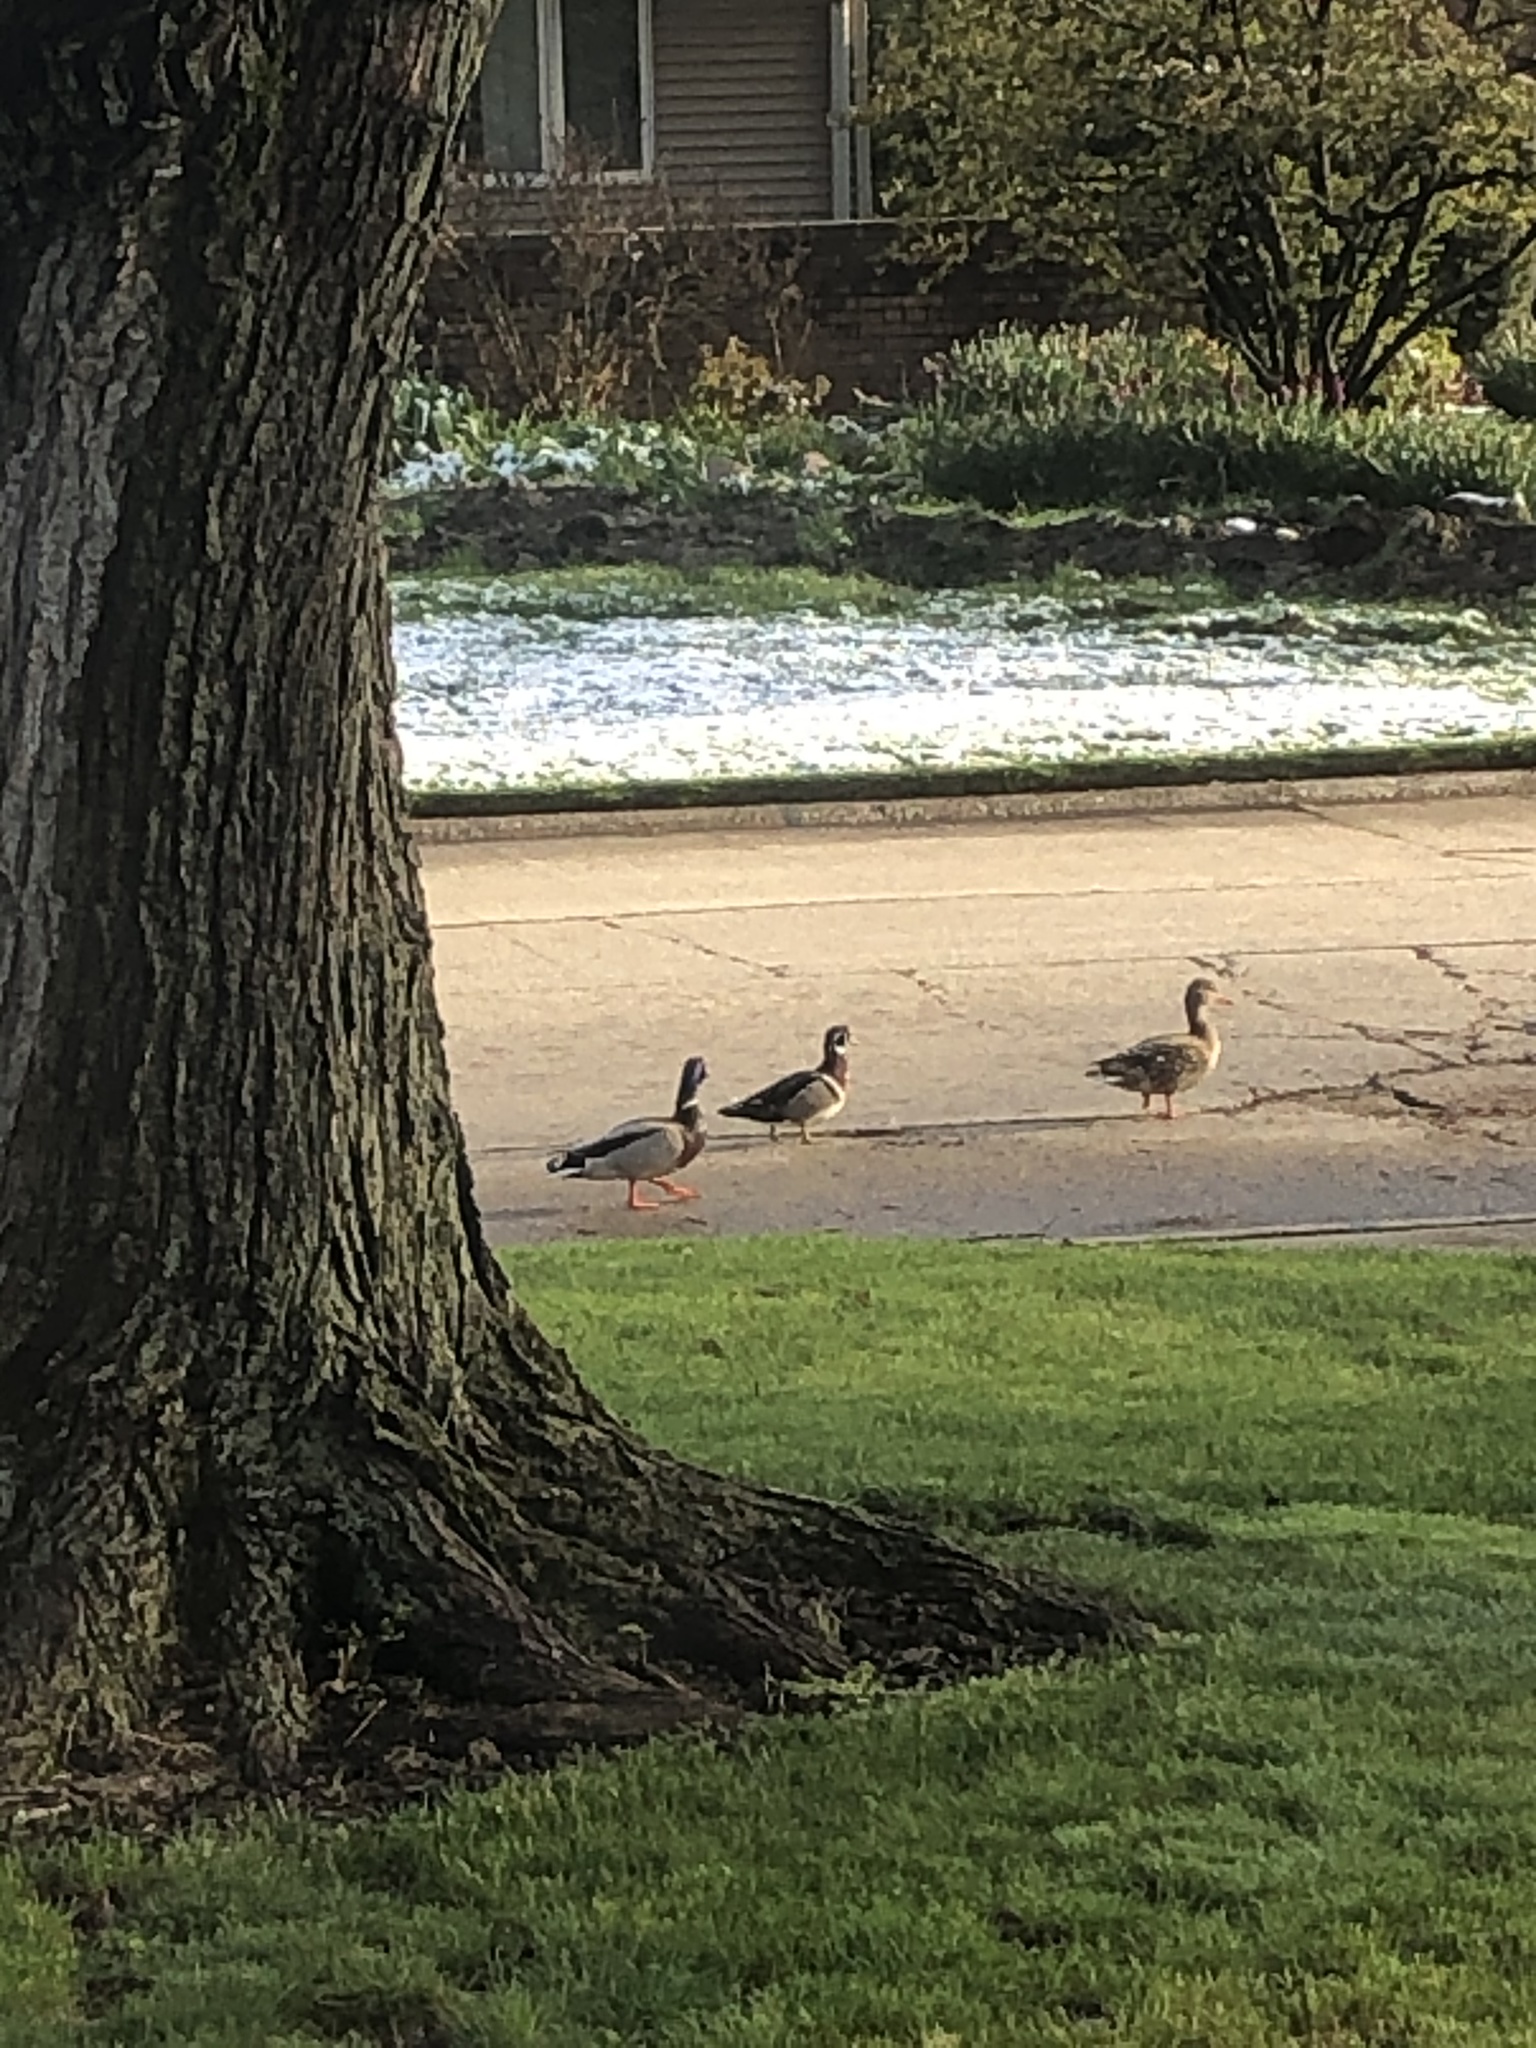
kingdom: Animalia
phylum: Chordata
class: Aves
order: Anseriformes
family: Anatidae
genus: Aix
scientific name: Aix sponsa
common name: Wood duck
